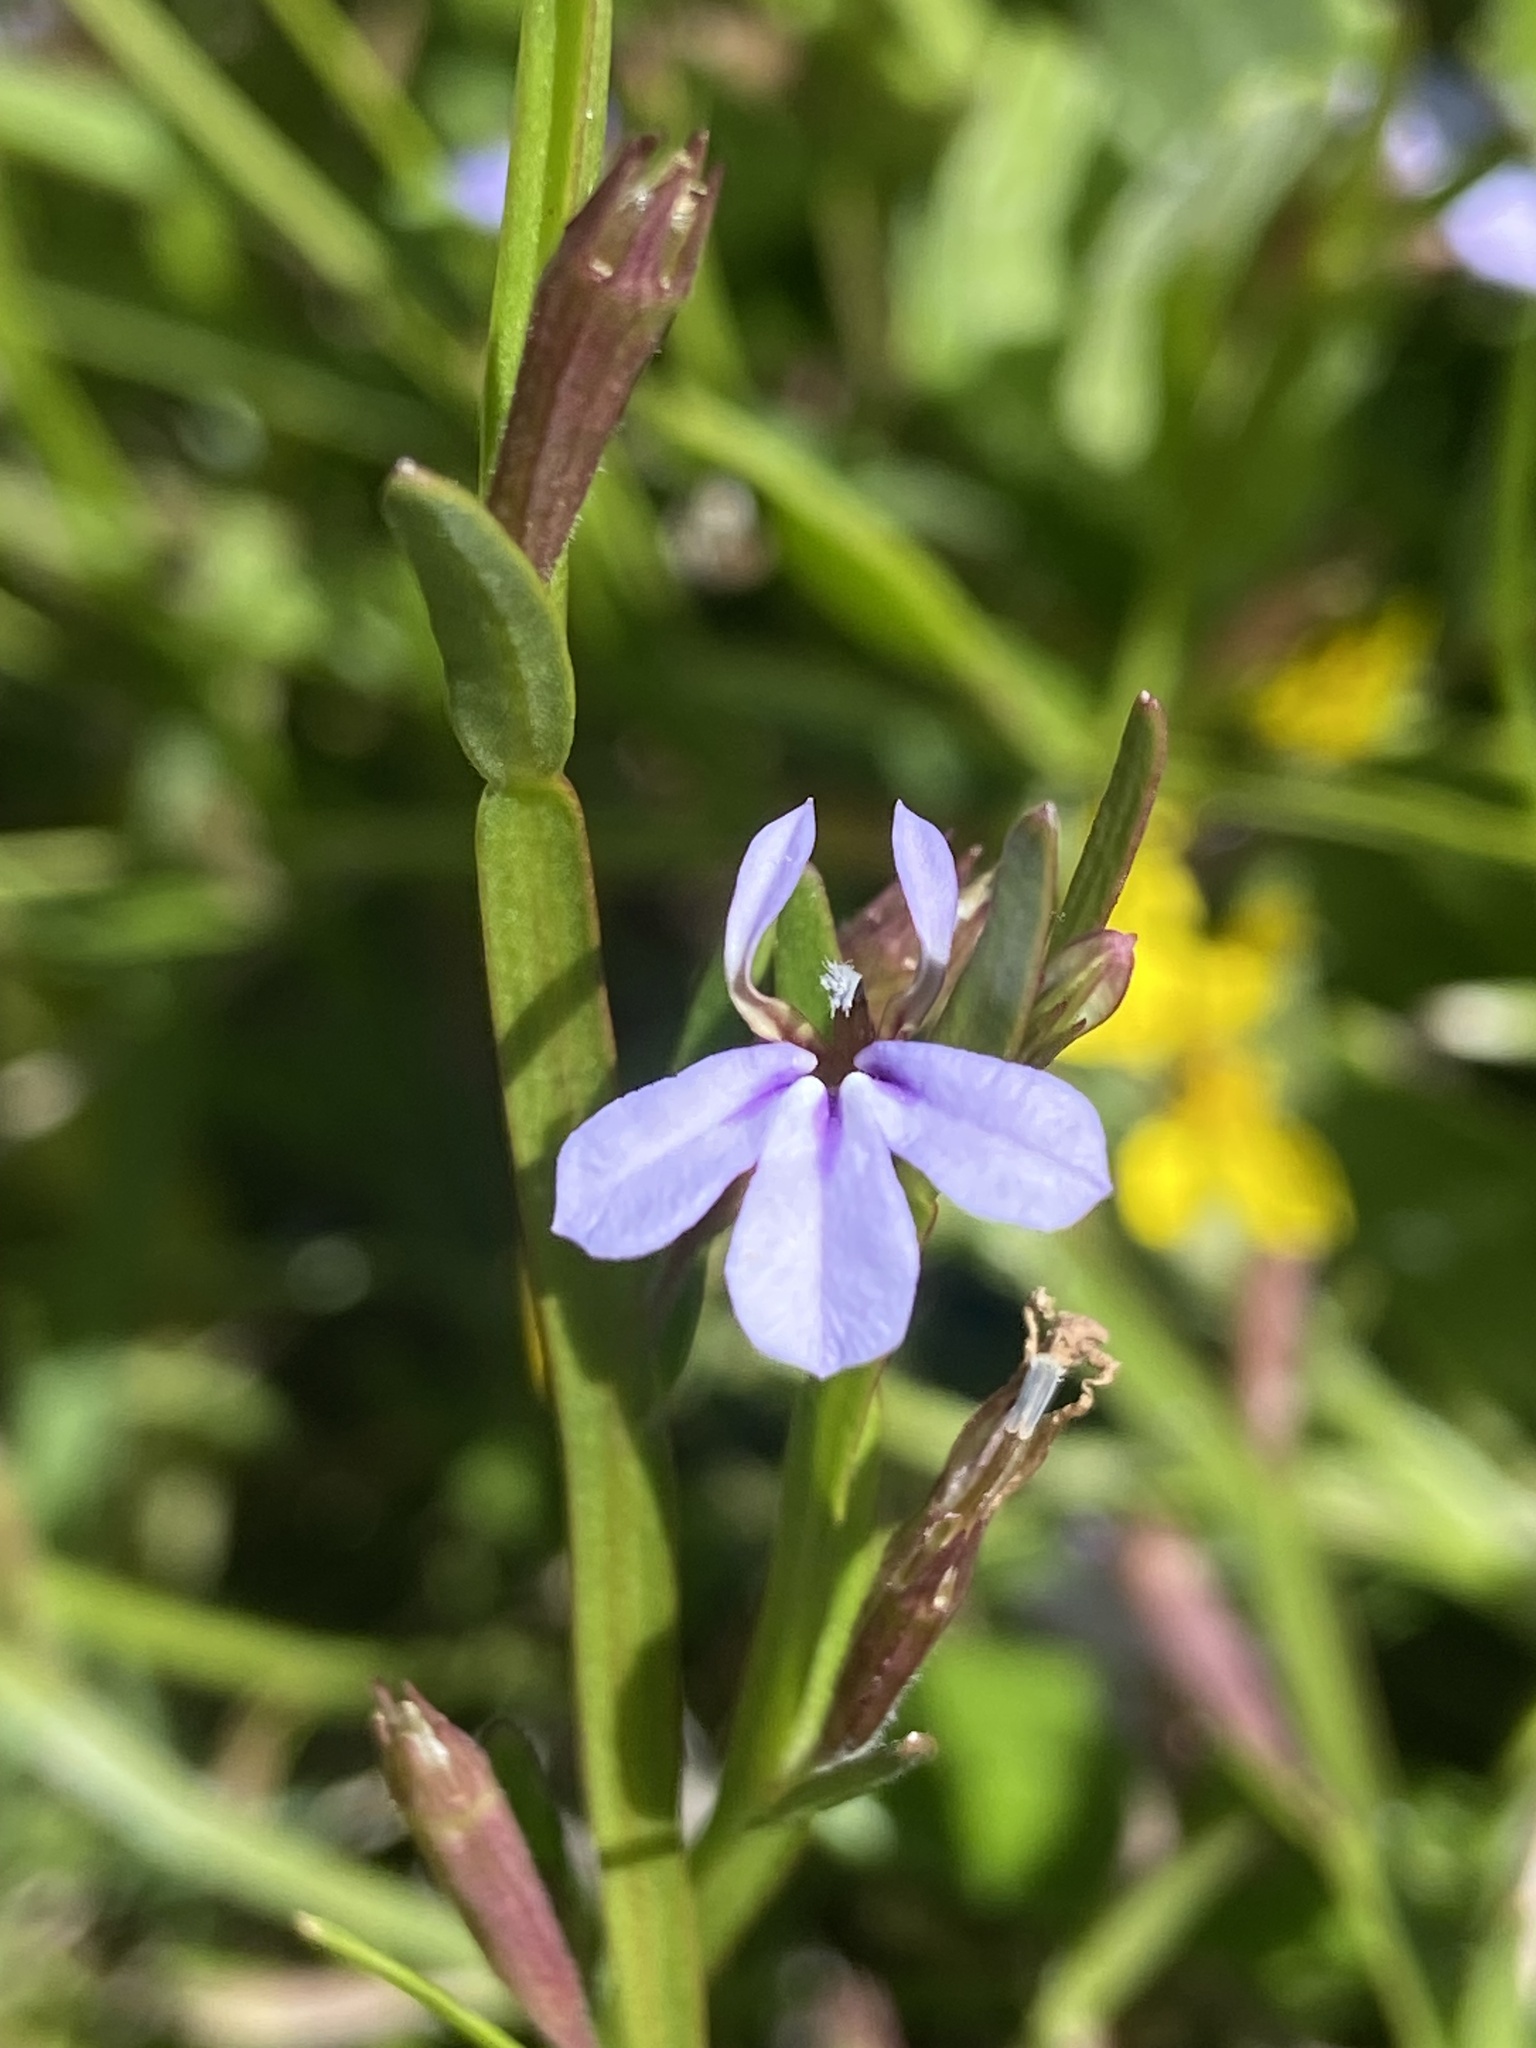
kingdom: Plantae
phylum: Tracheophyta
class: Magnoliopsida
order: Asterales
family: Campanulaceae
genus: Lobelia
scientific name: Lobelia anceps
